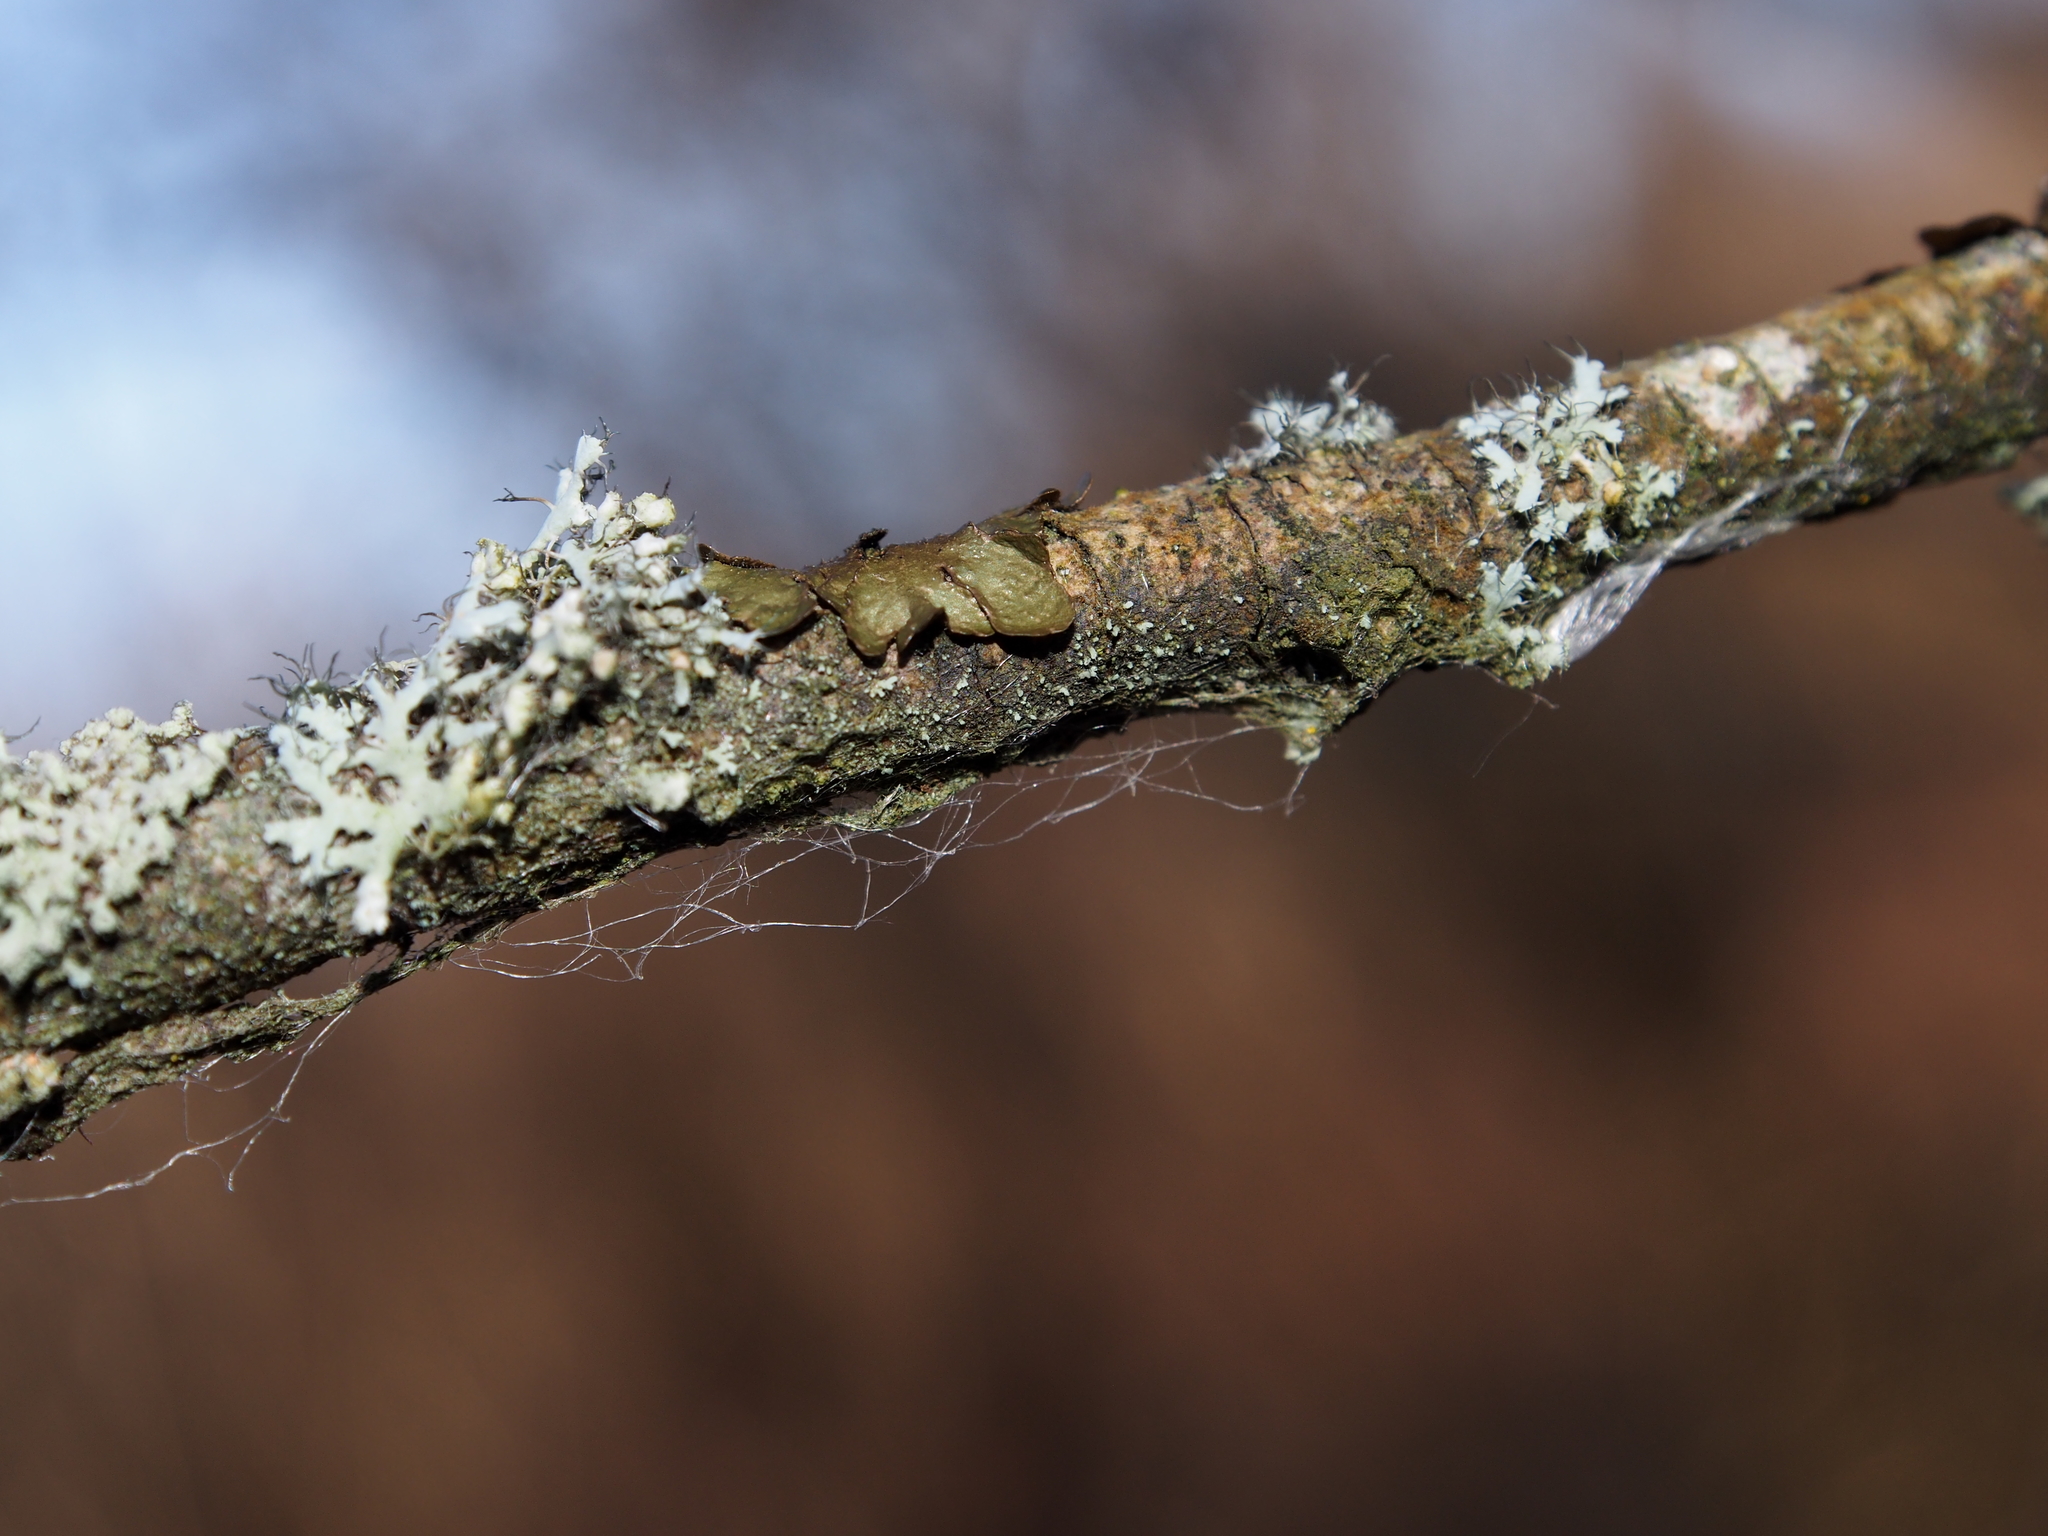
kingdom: Fungi
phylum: Ascomycota
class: Lecanoromycetes
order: Lecanorales
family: Parmeliaceae
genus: Melanelixia
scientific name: Melanelixia subaurifera
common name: Abraded camouflage lichen
